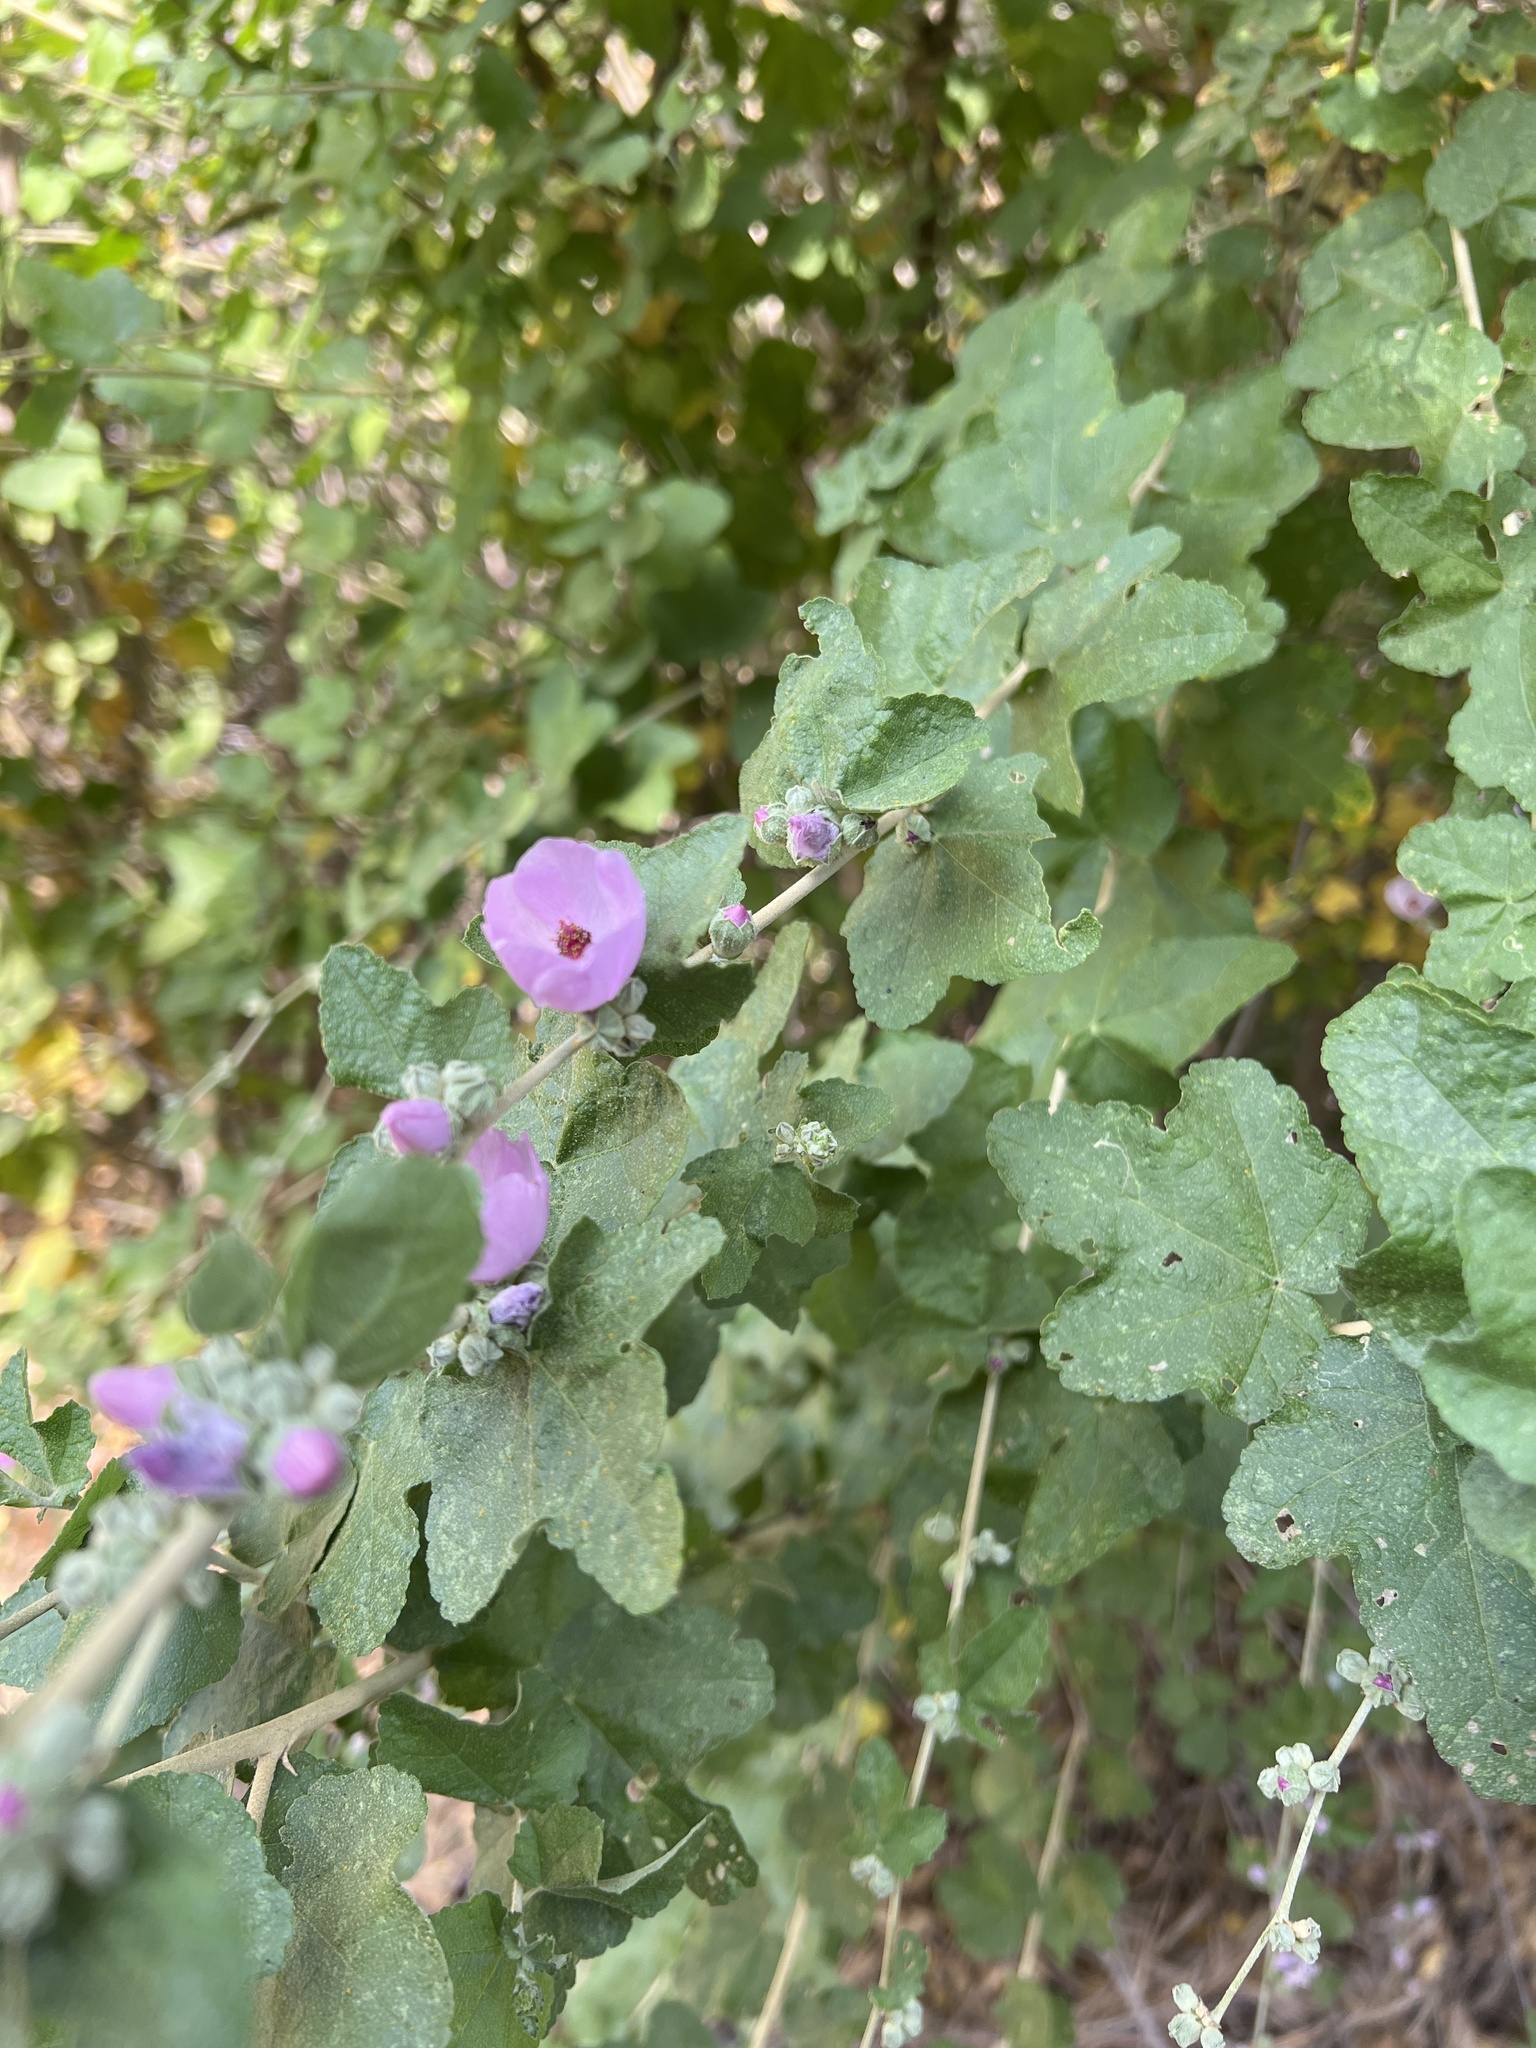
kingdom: Plantae
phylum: Tracheophyta
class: Magnoliopsida
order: Malvales
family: Malvaceae
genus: Malacothamnus
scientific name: Malacothamnus fasciculatus
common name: Sant cruz island bush-mallow
